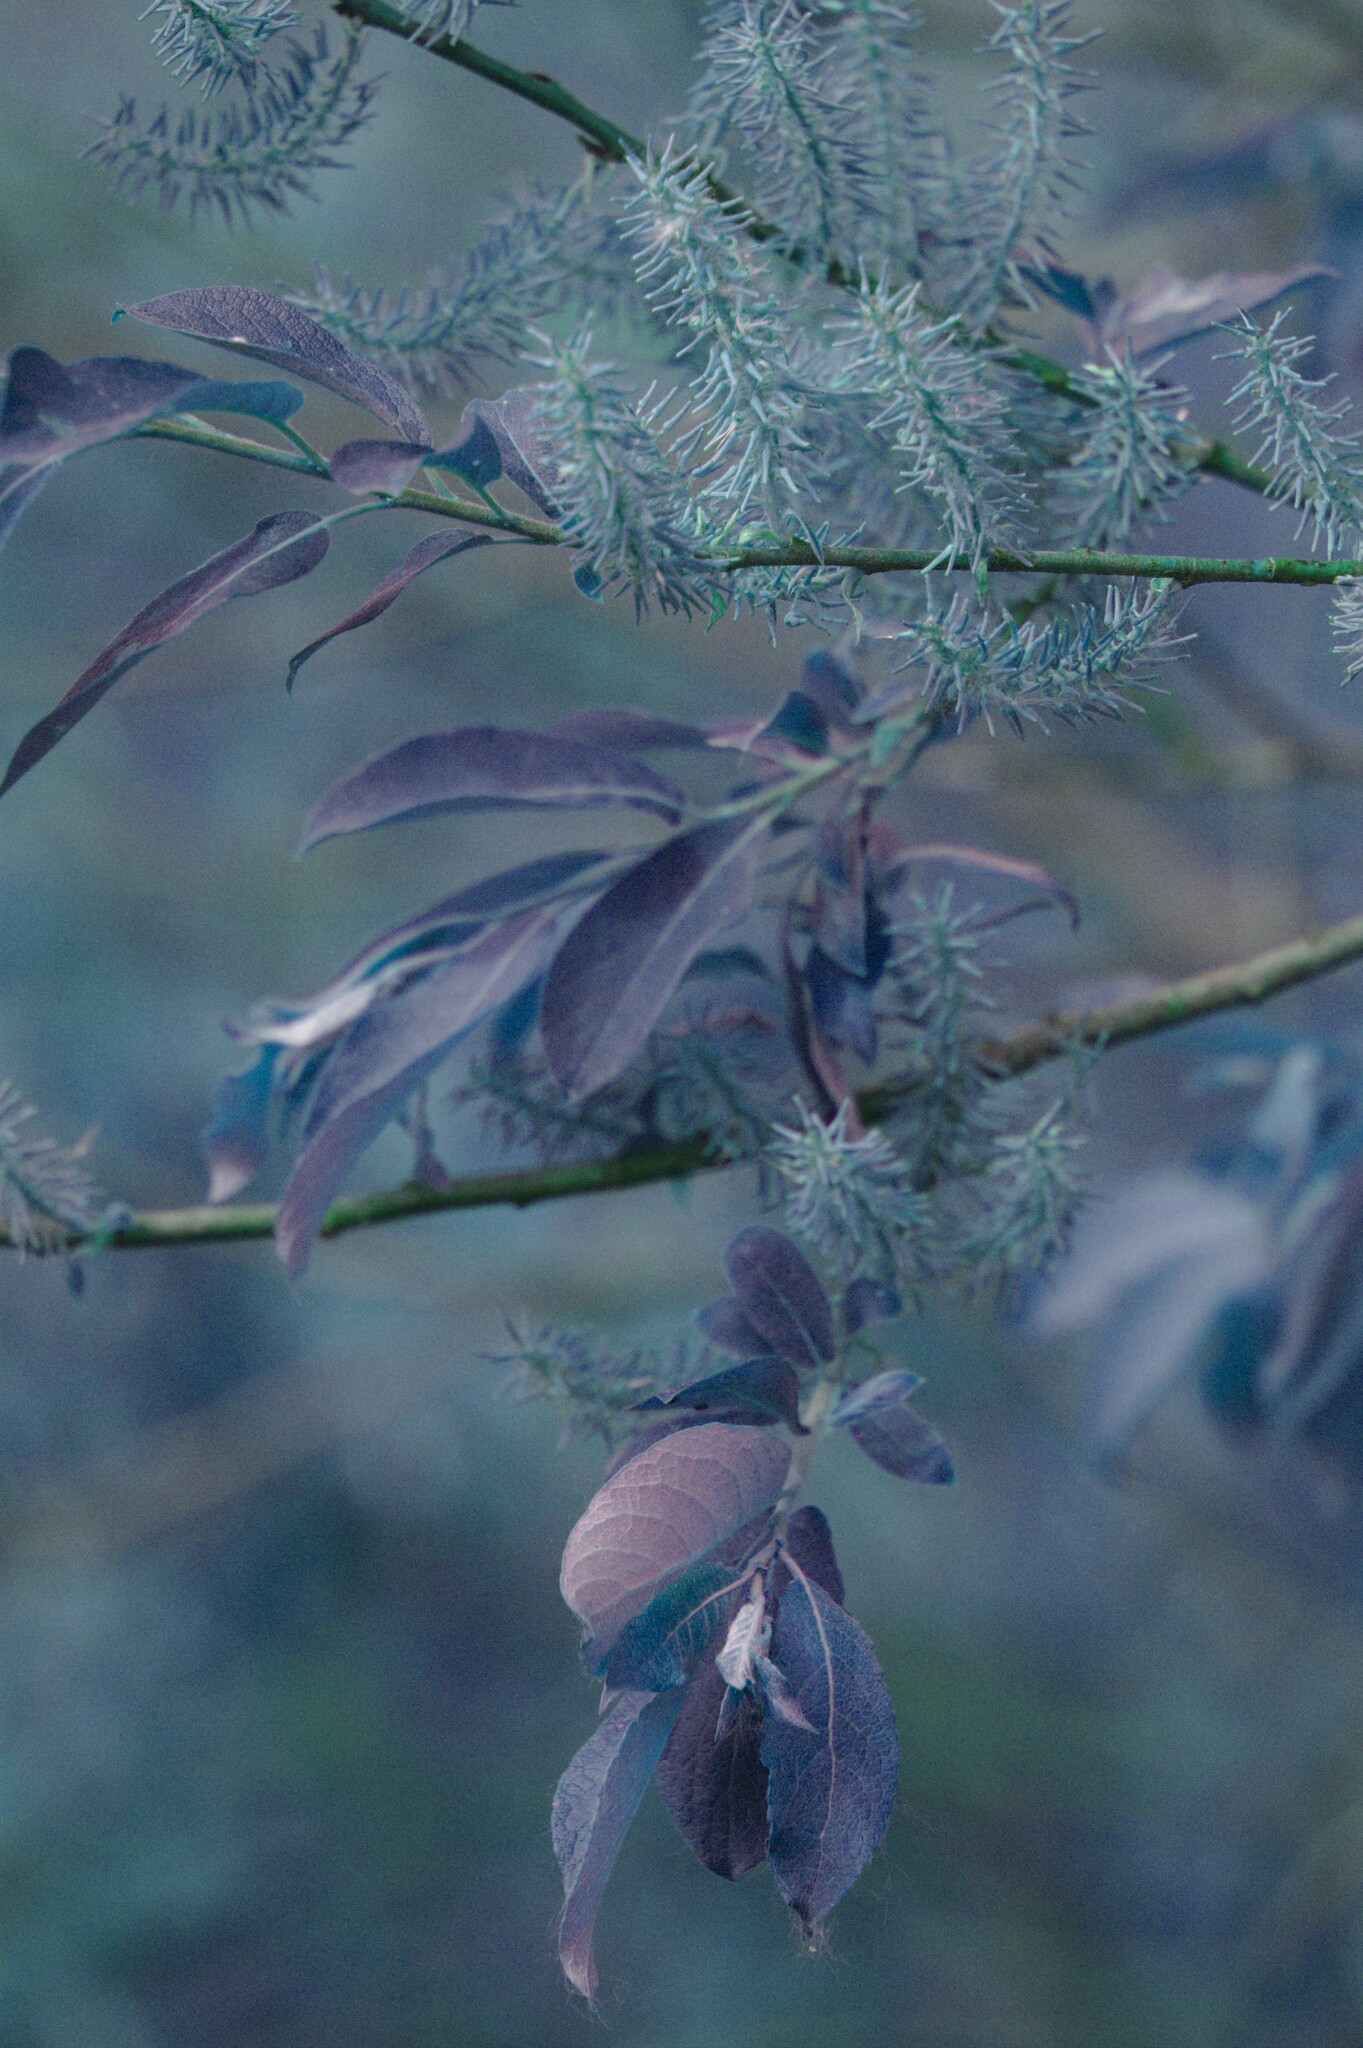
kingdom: Plantae
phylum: Tracheophyta
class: Magnoliopsida
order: Malpighiales
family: Salicaceae
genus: Salix
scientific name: Salix bebbiana
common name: Bebb's willow
